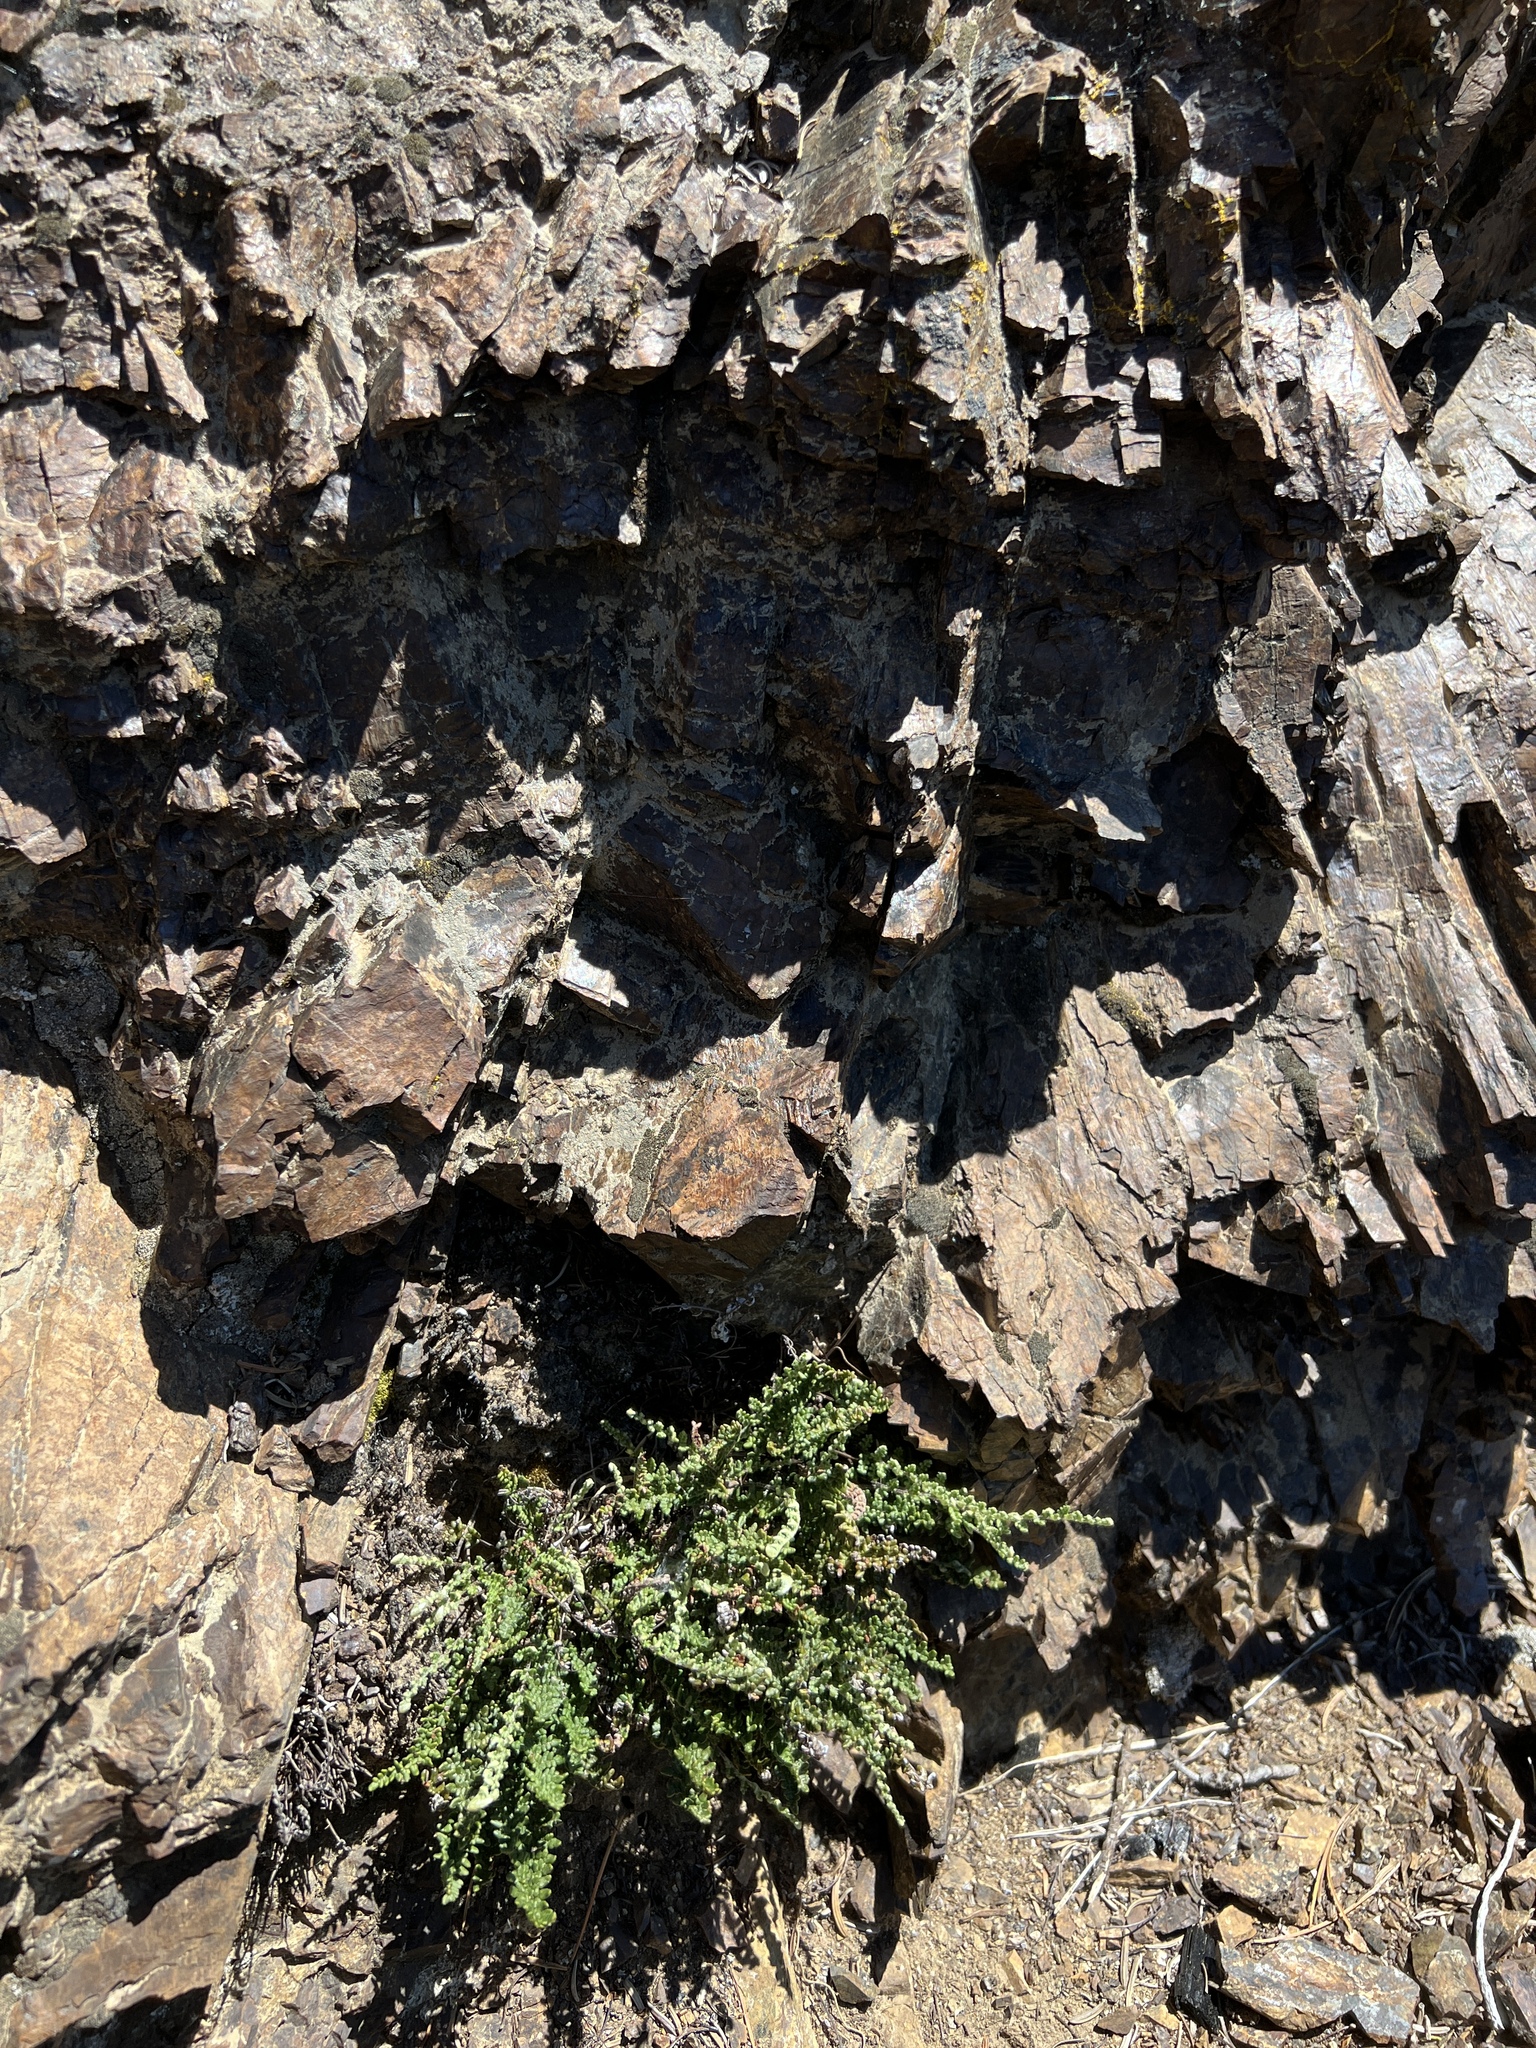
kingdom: Plantae
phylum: Tracheophyta
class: Polypodiopsida
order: Polypodiales
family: Pteridaceae
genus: Myriopteris
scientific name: Myriopteris gracillima
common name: Lace fern
